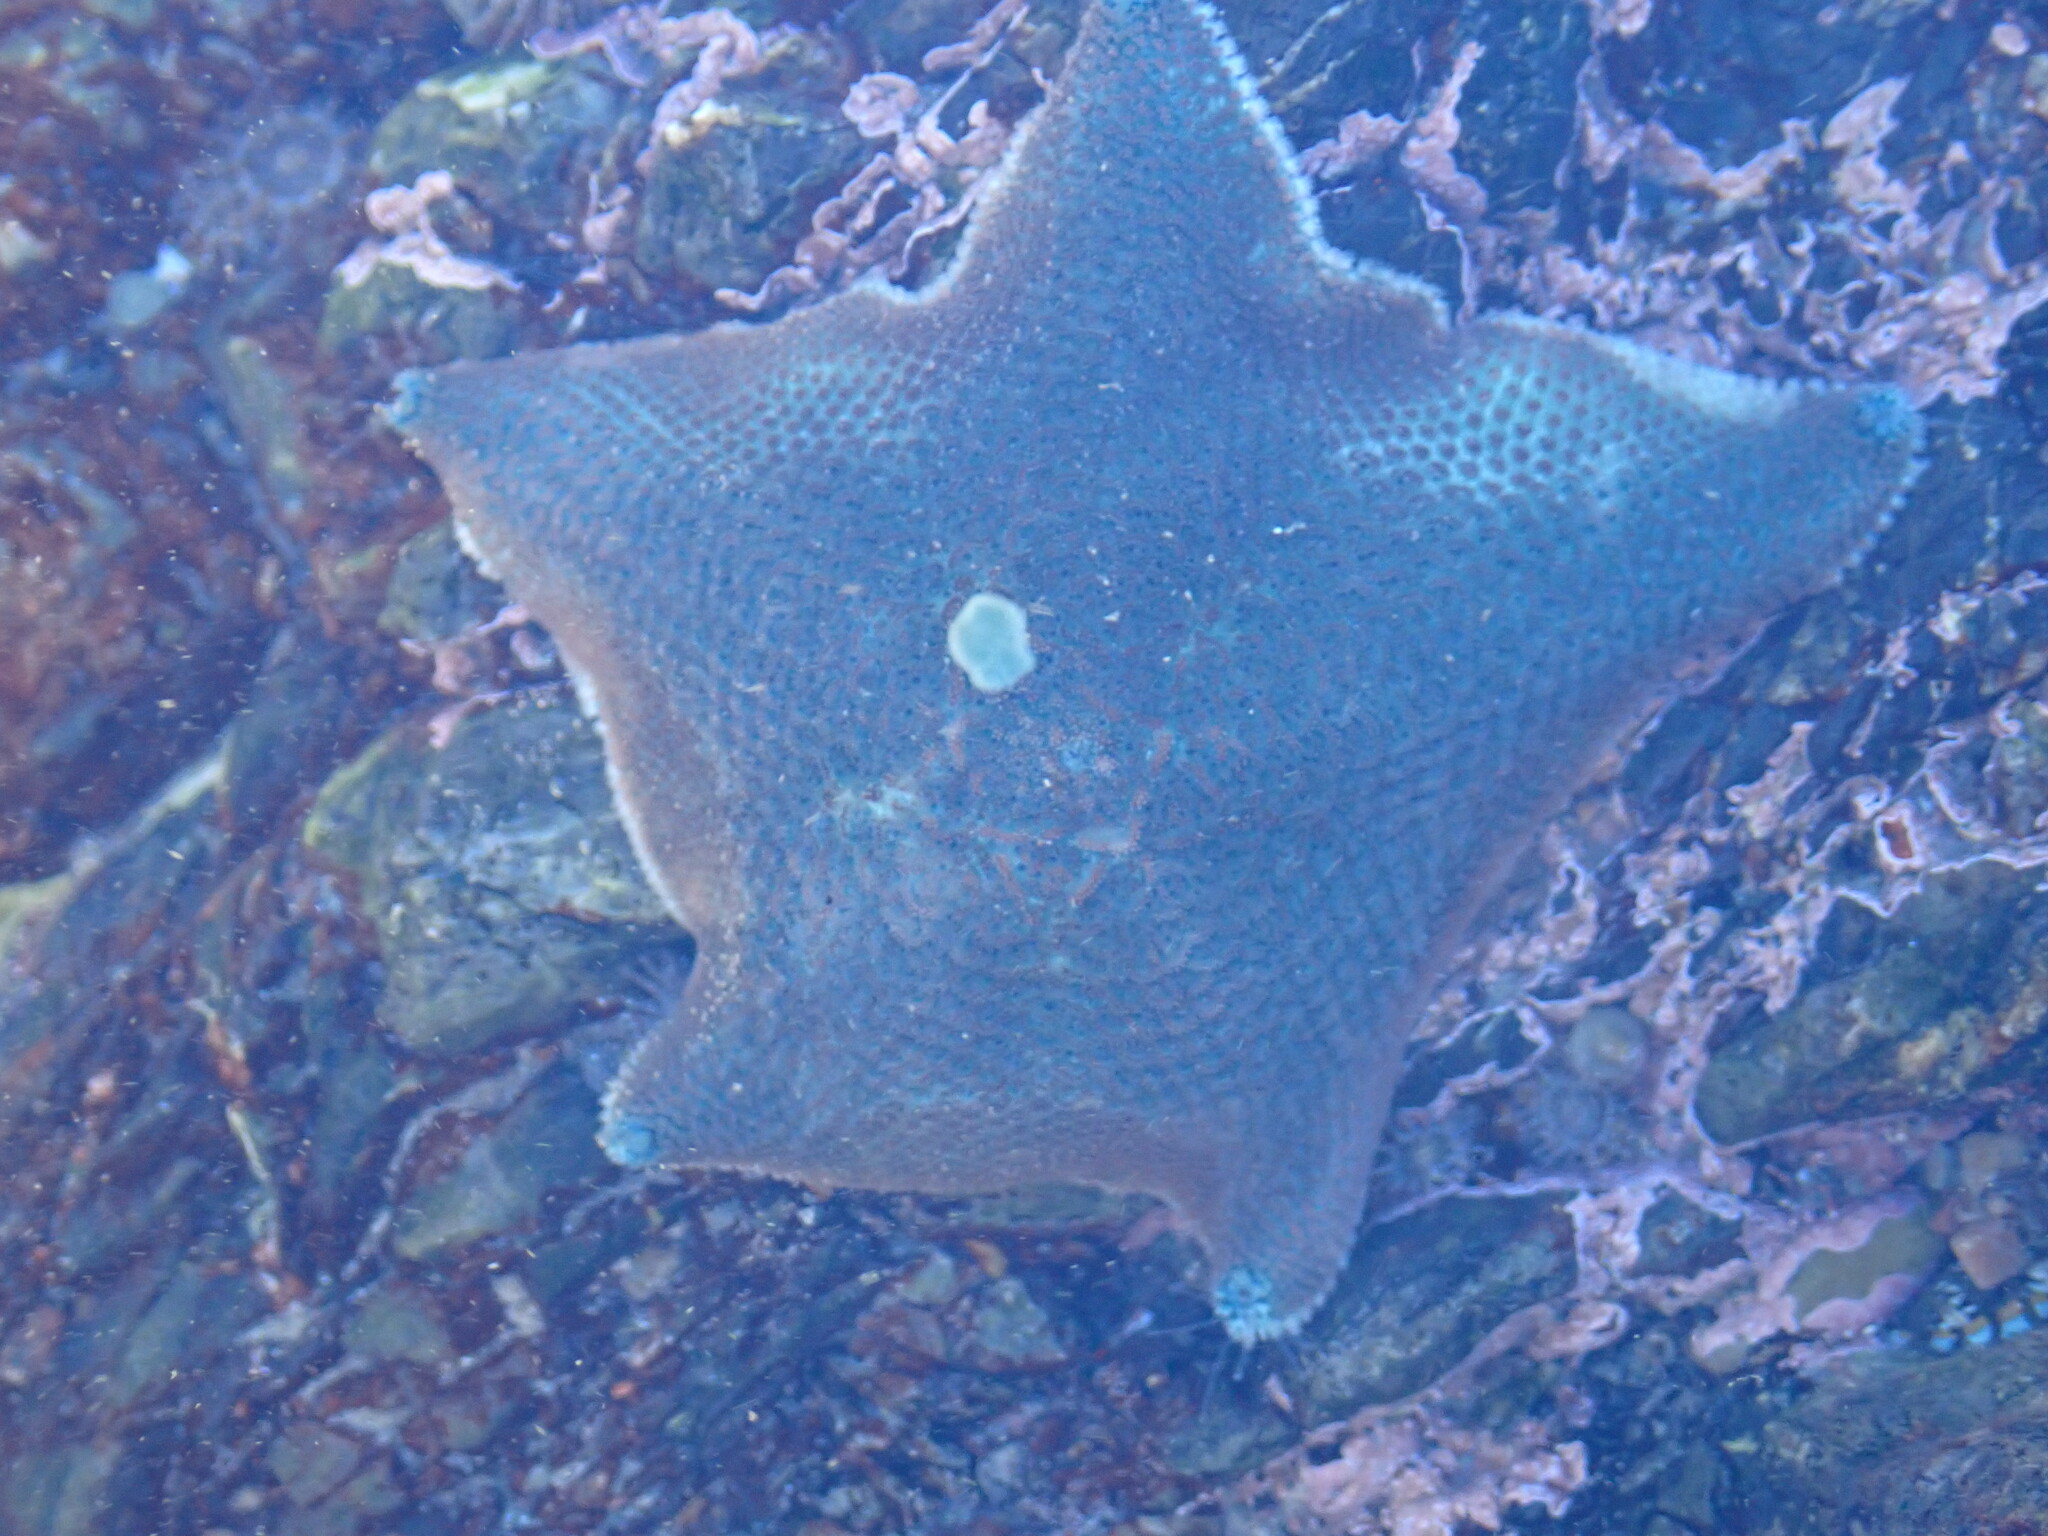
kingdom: Animalia
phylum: Echinodermata
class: Asteroidea
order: Valvatida
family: Asterinidae
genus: Patiriella
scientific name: Patiriella regularis
